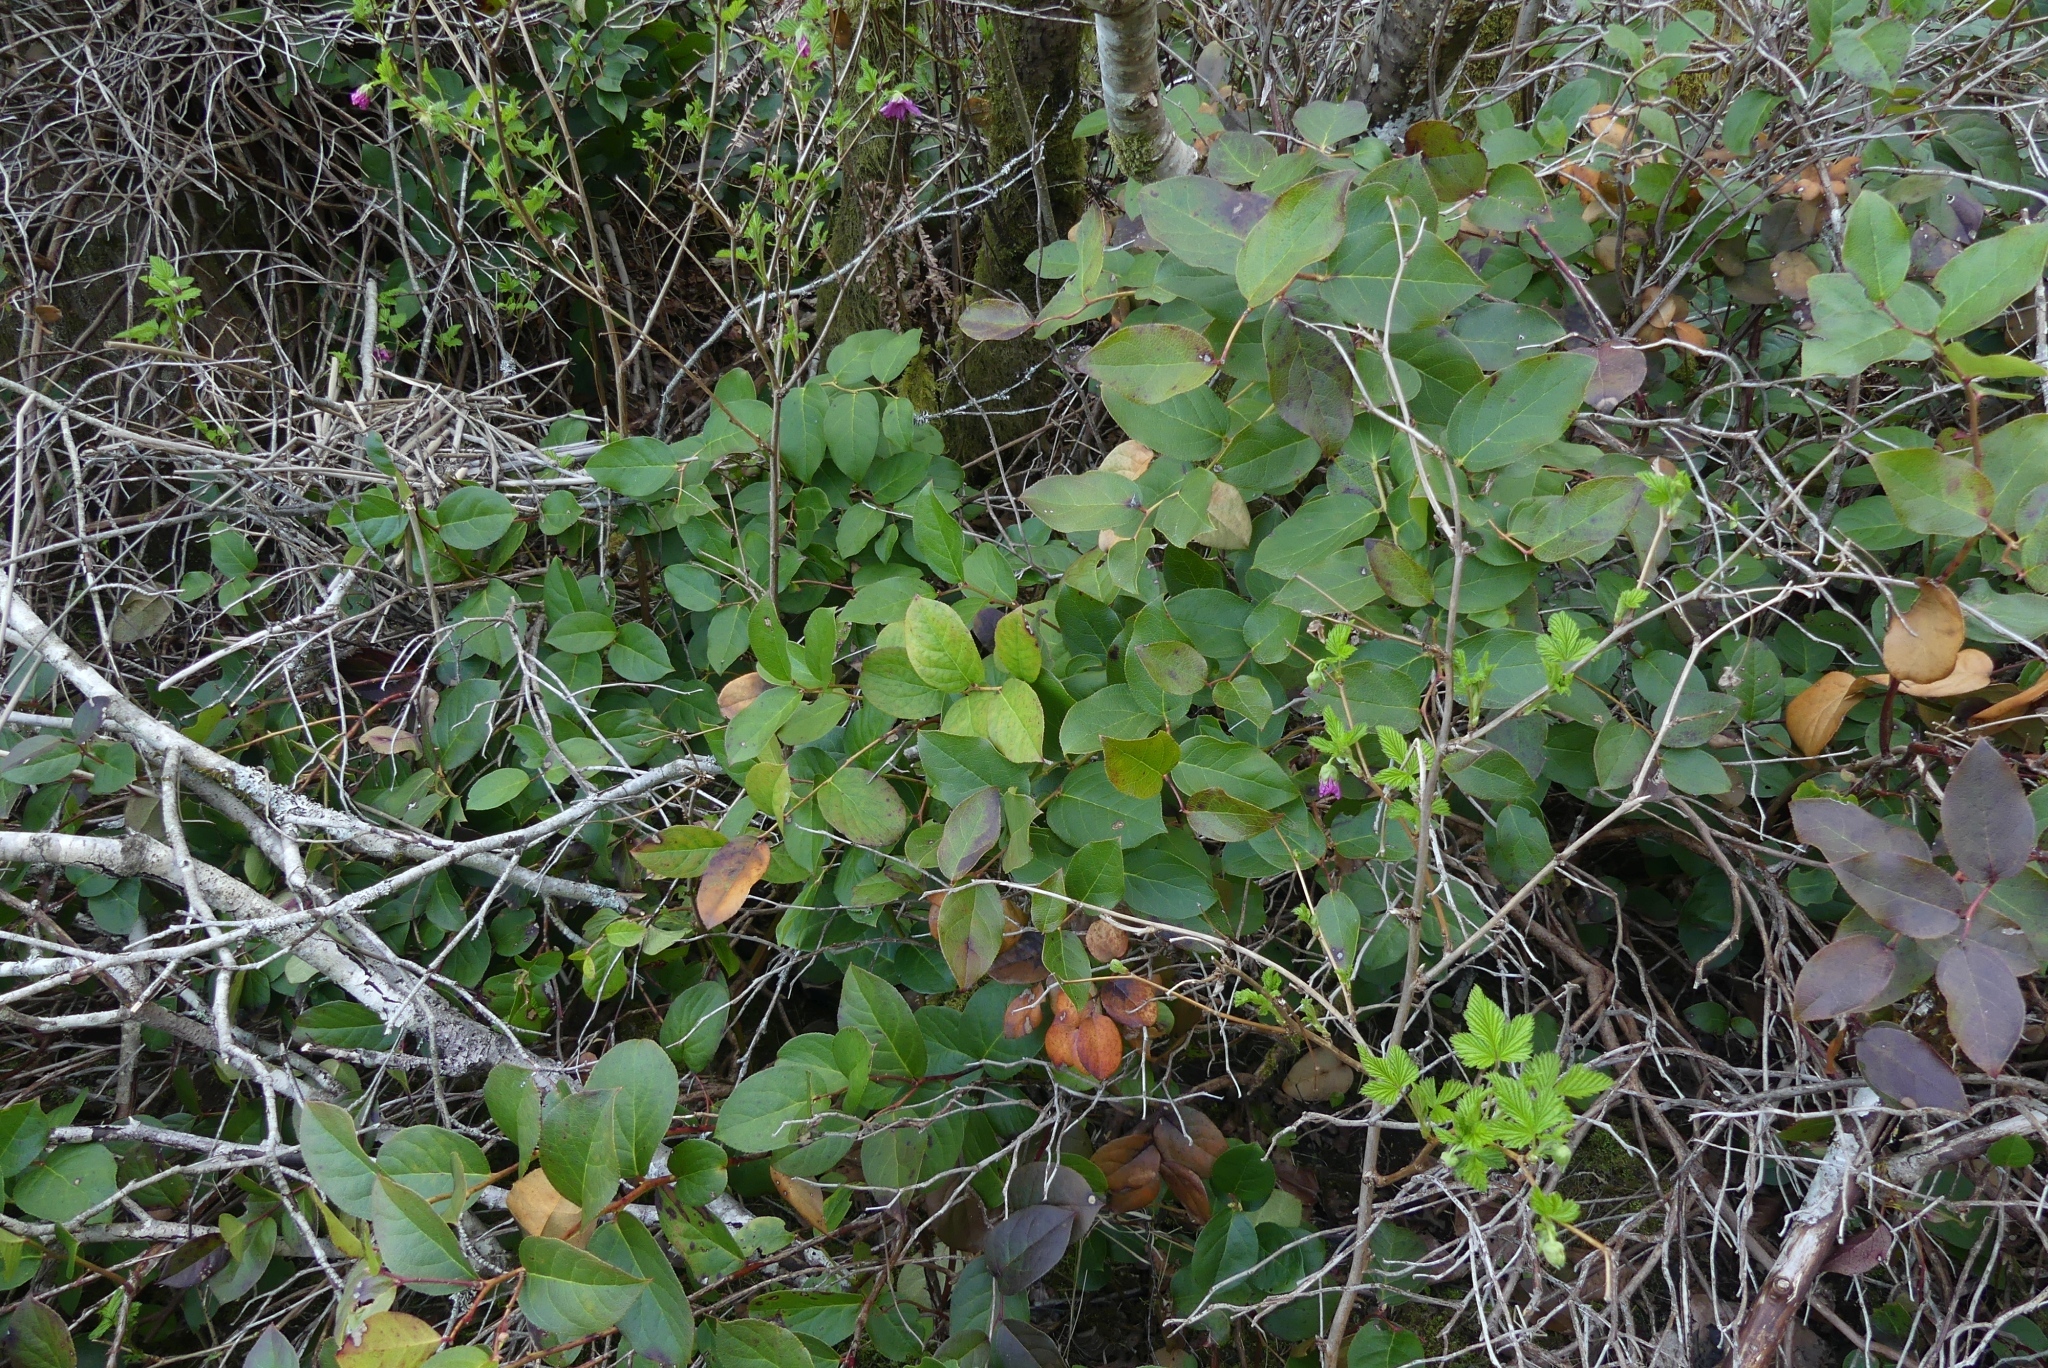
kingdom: Plantae
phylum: Tracheophyta
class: Magnoliopsida
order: Ericales
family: Ericaceae
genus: Gaultheria
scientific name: Gaultheria shallon
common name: Shallon
